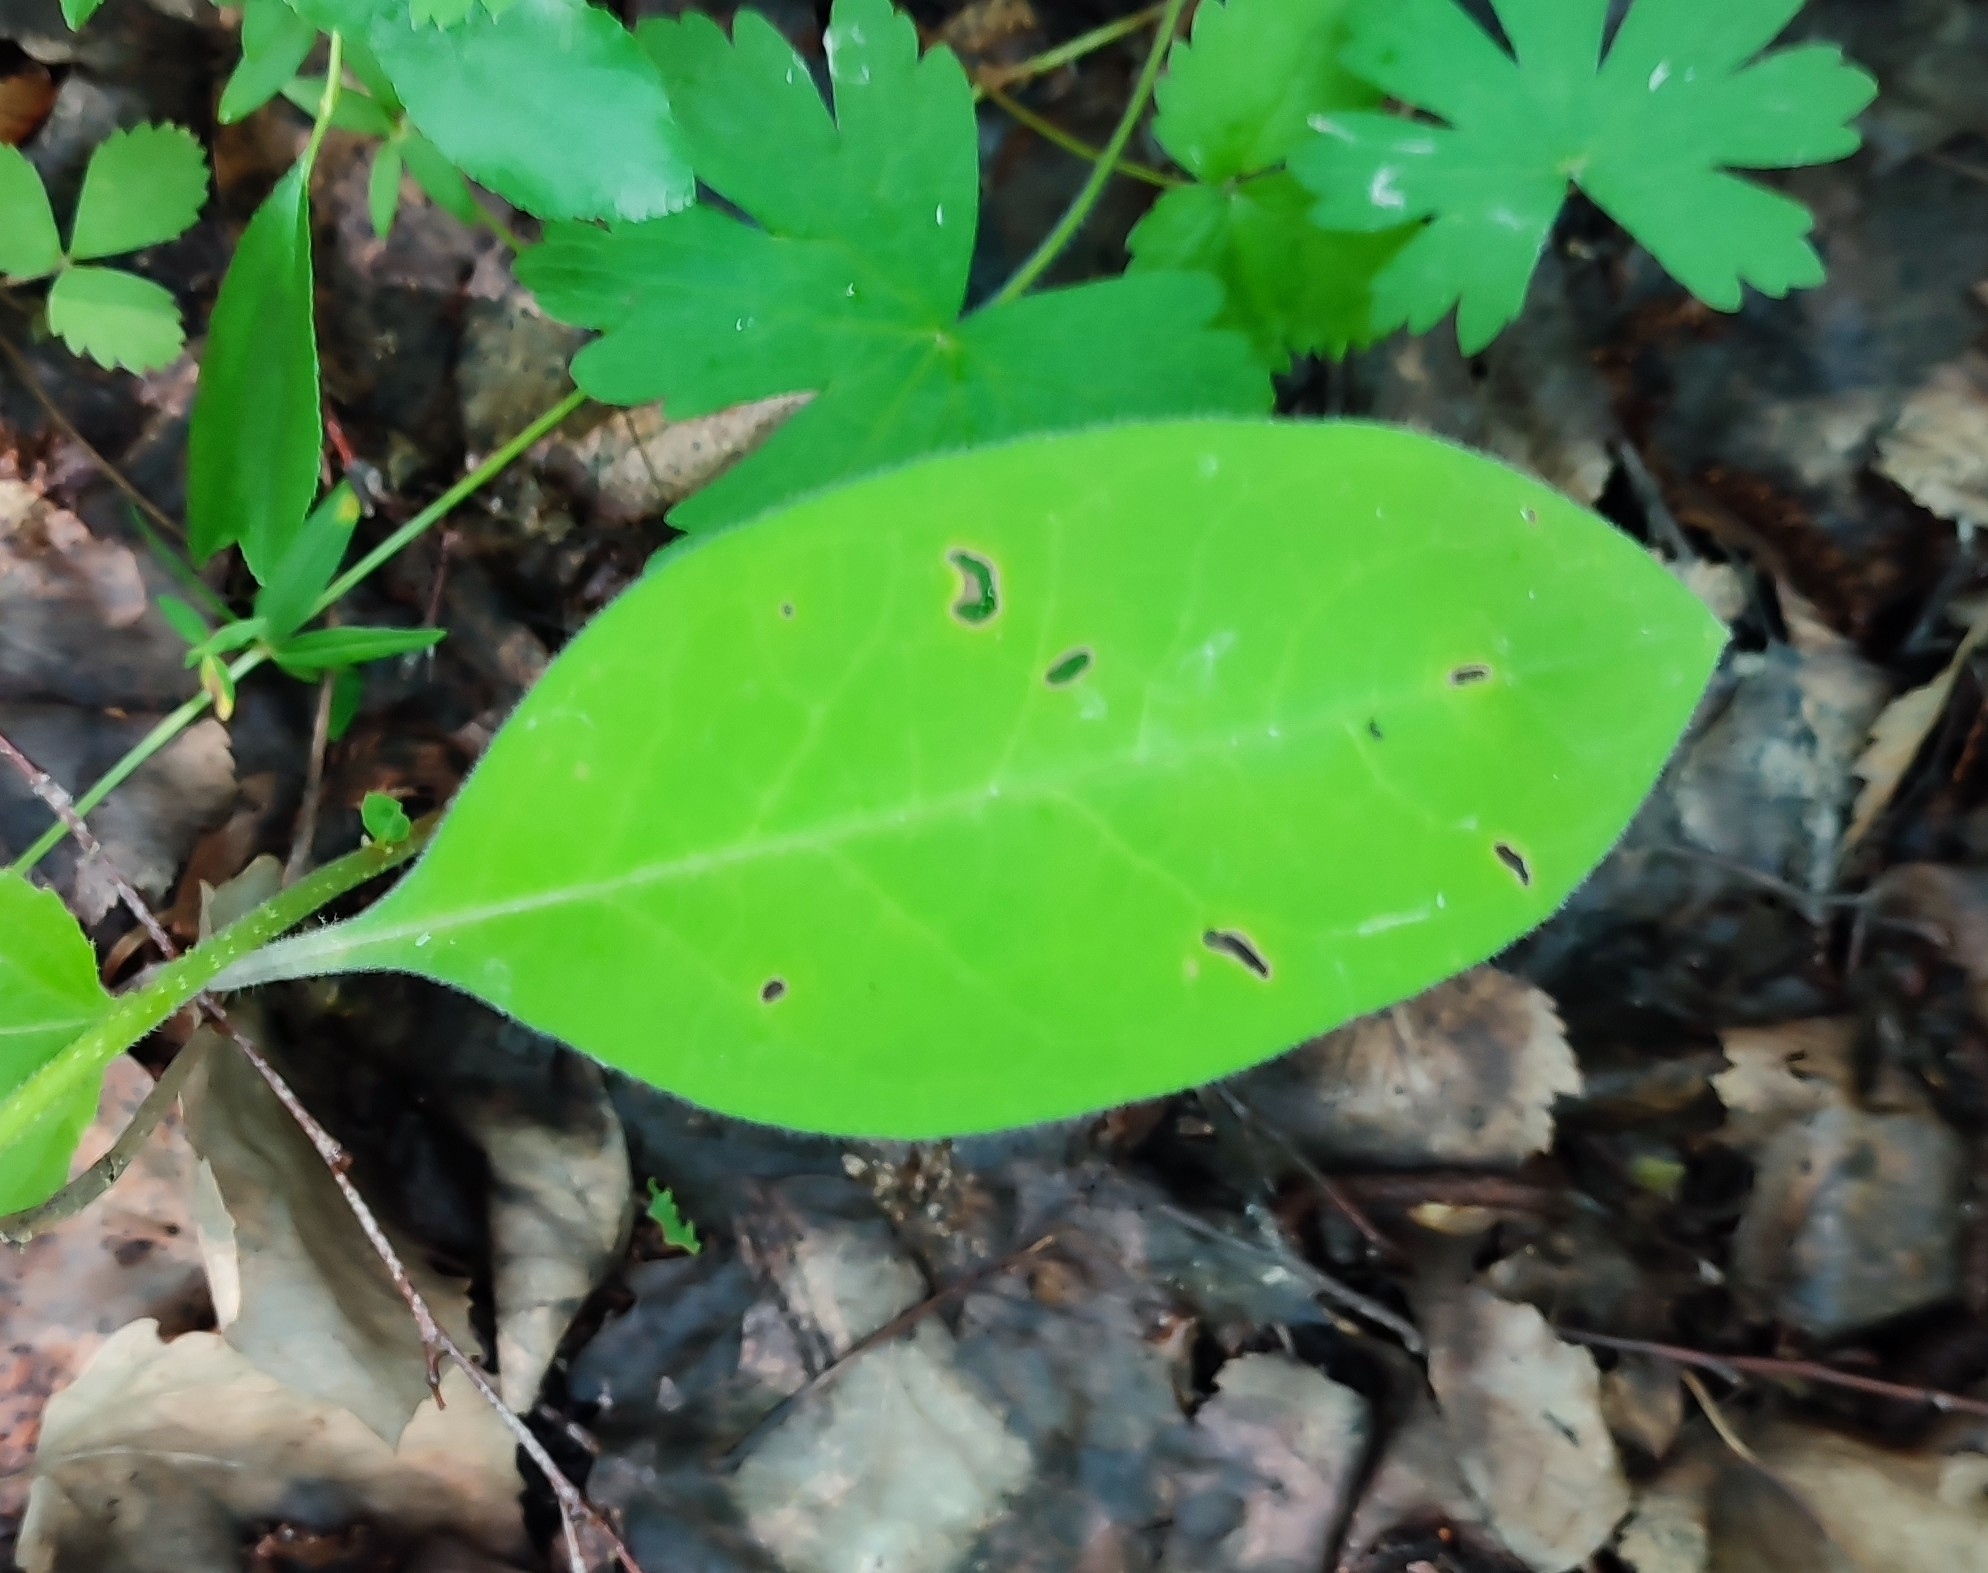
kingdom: Plantae
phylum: Tracheophyta
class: Magnoliopsida
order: Boraginales
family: Boraginaceae
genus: Pulmonaria
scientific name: Pulmonaria mollis
